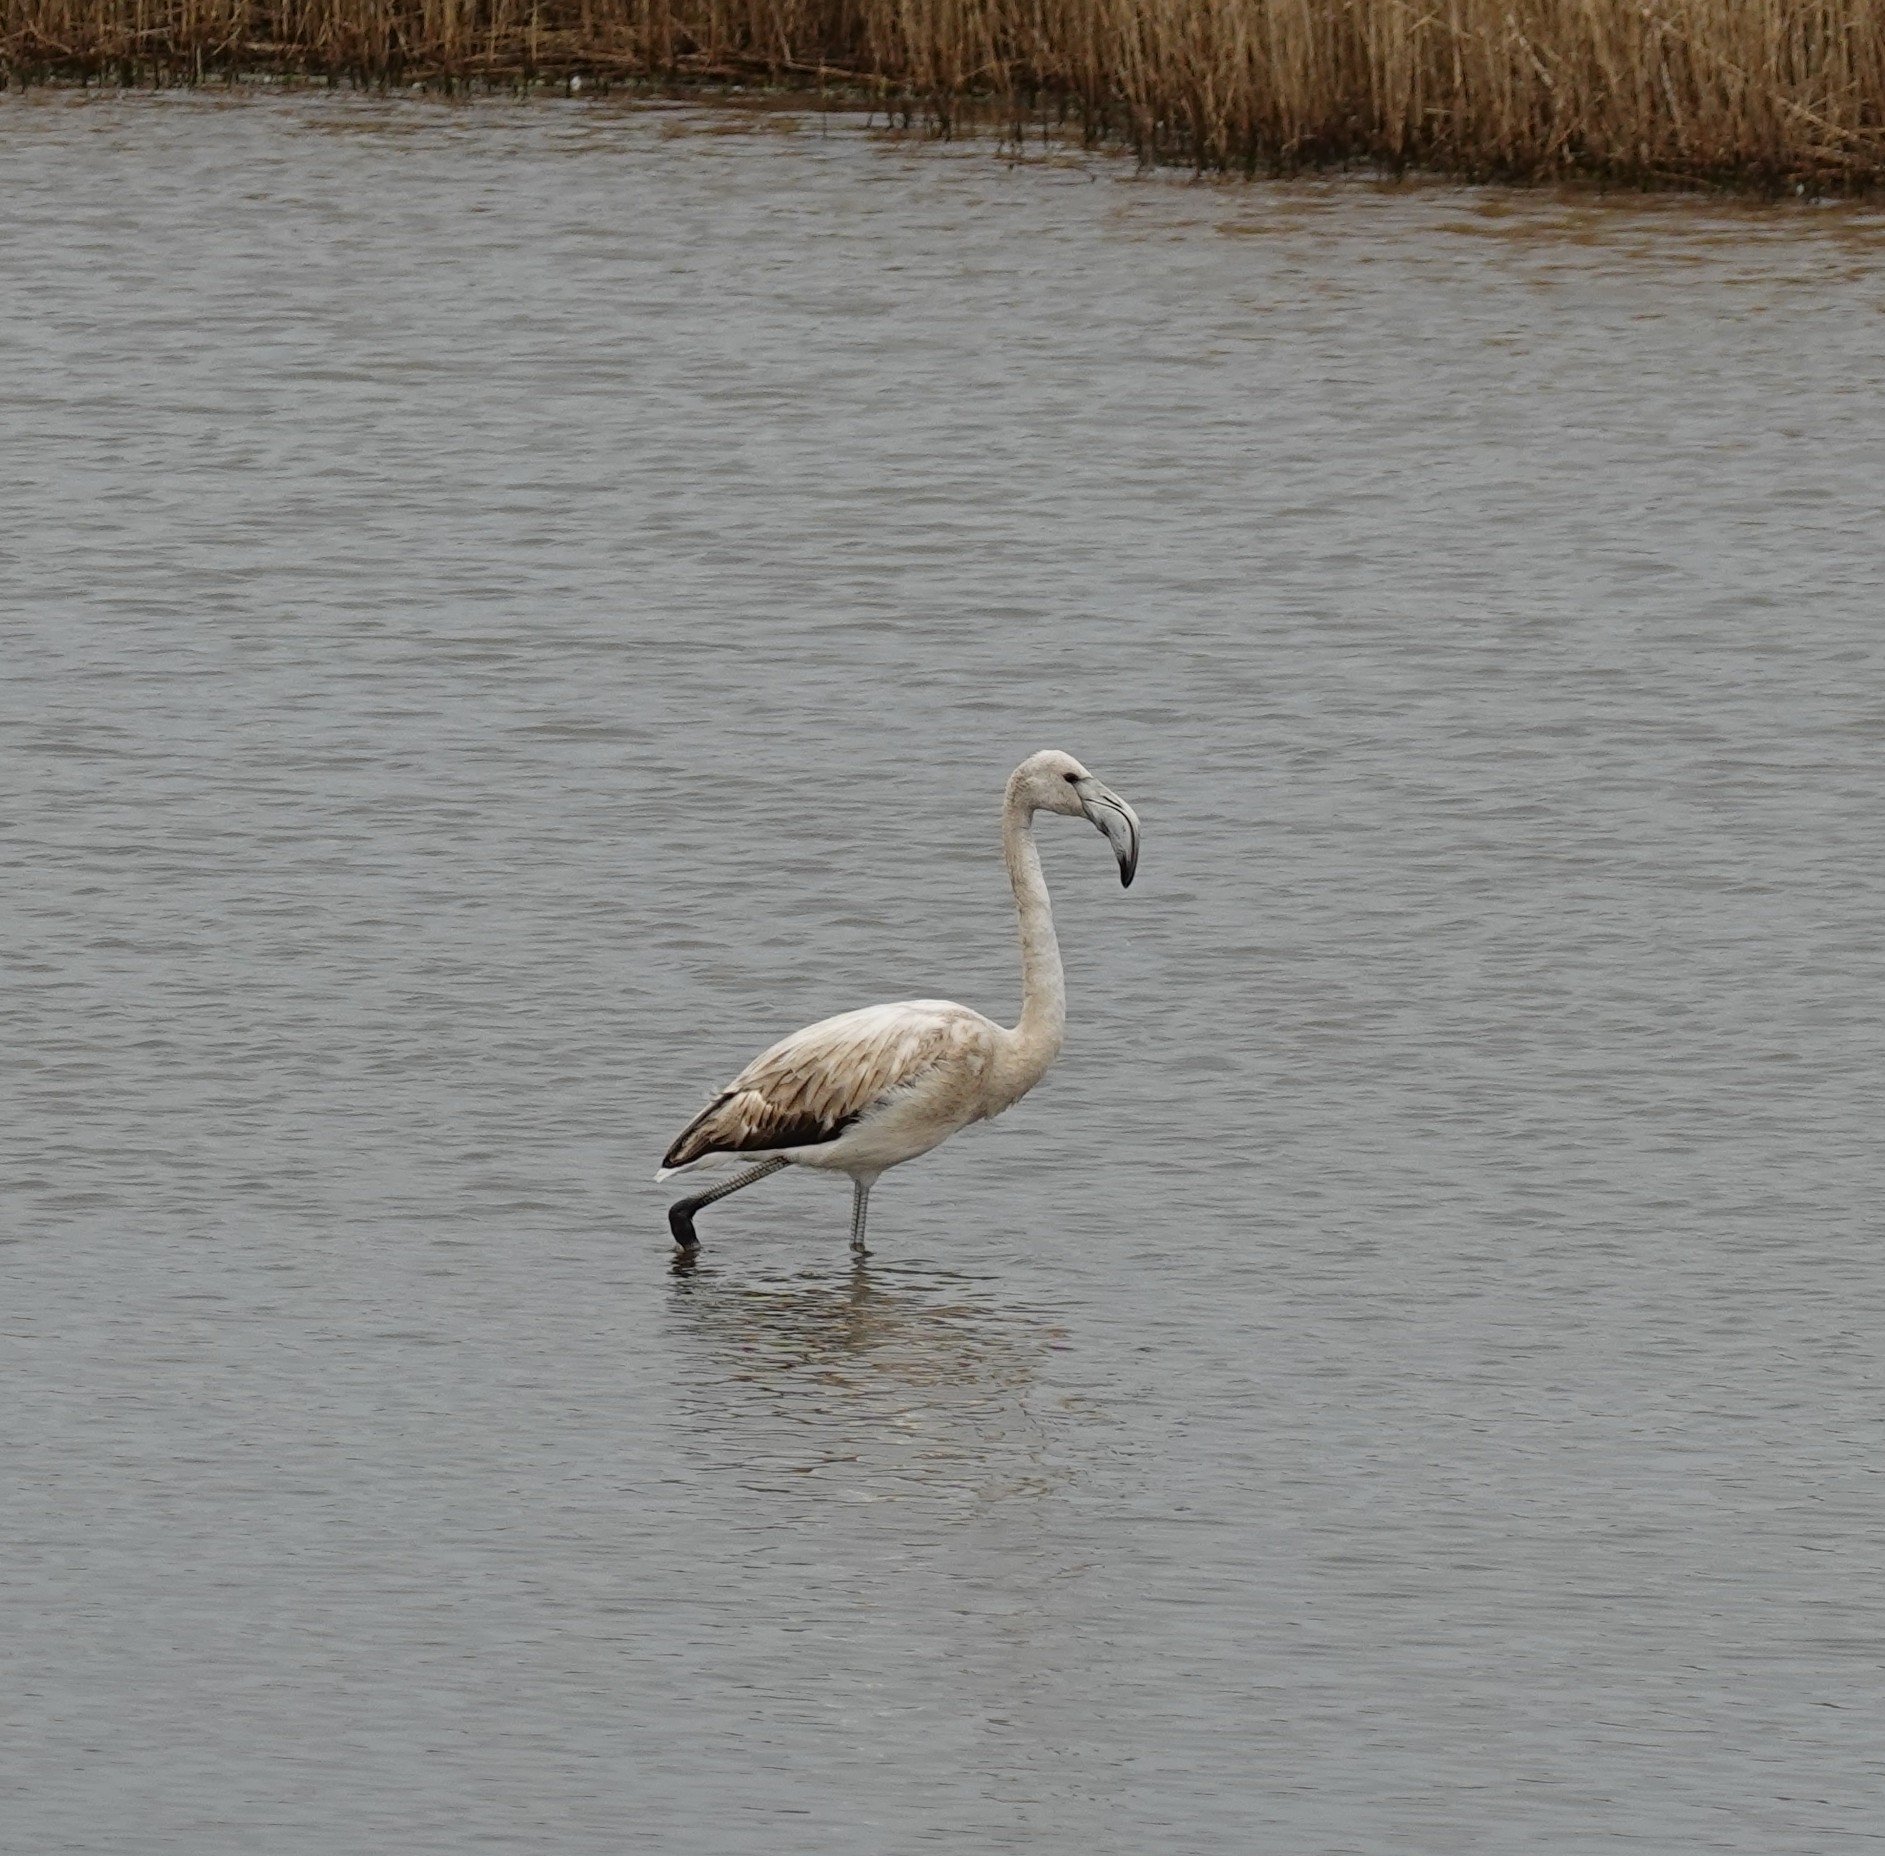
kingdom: Animalia
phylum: Chordata
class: Aves
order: Phoenicopteriformes
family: Phoenicopteridae
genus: Phoenicopterus
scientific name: Phoenicopterus roseus
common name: Greater flamingo
